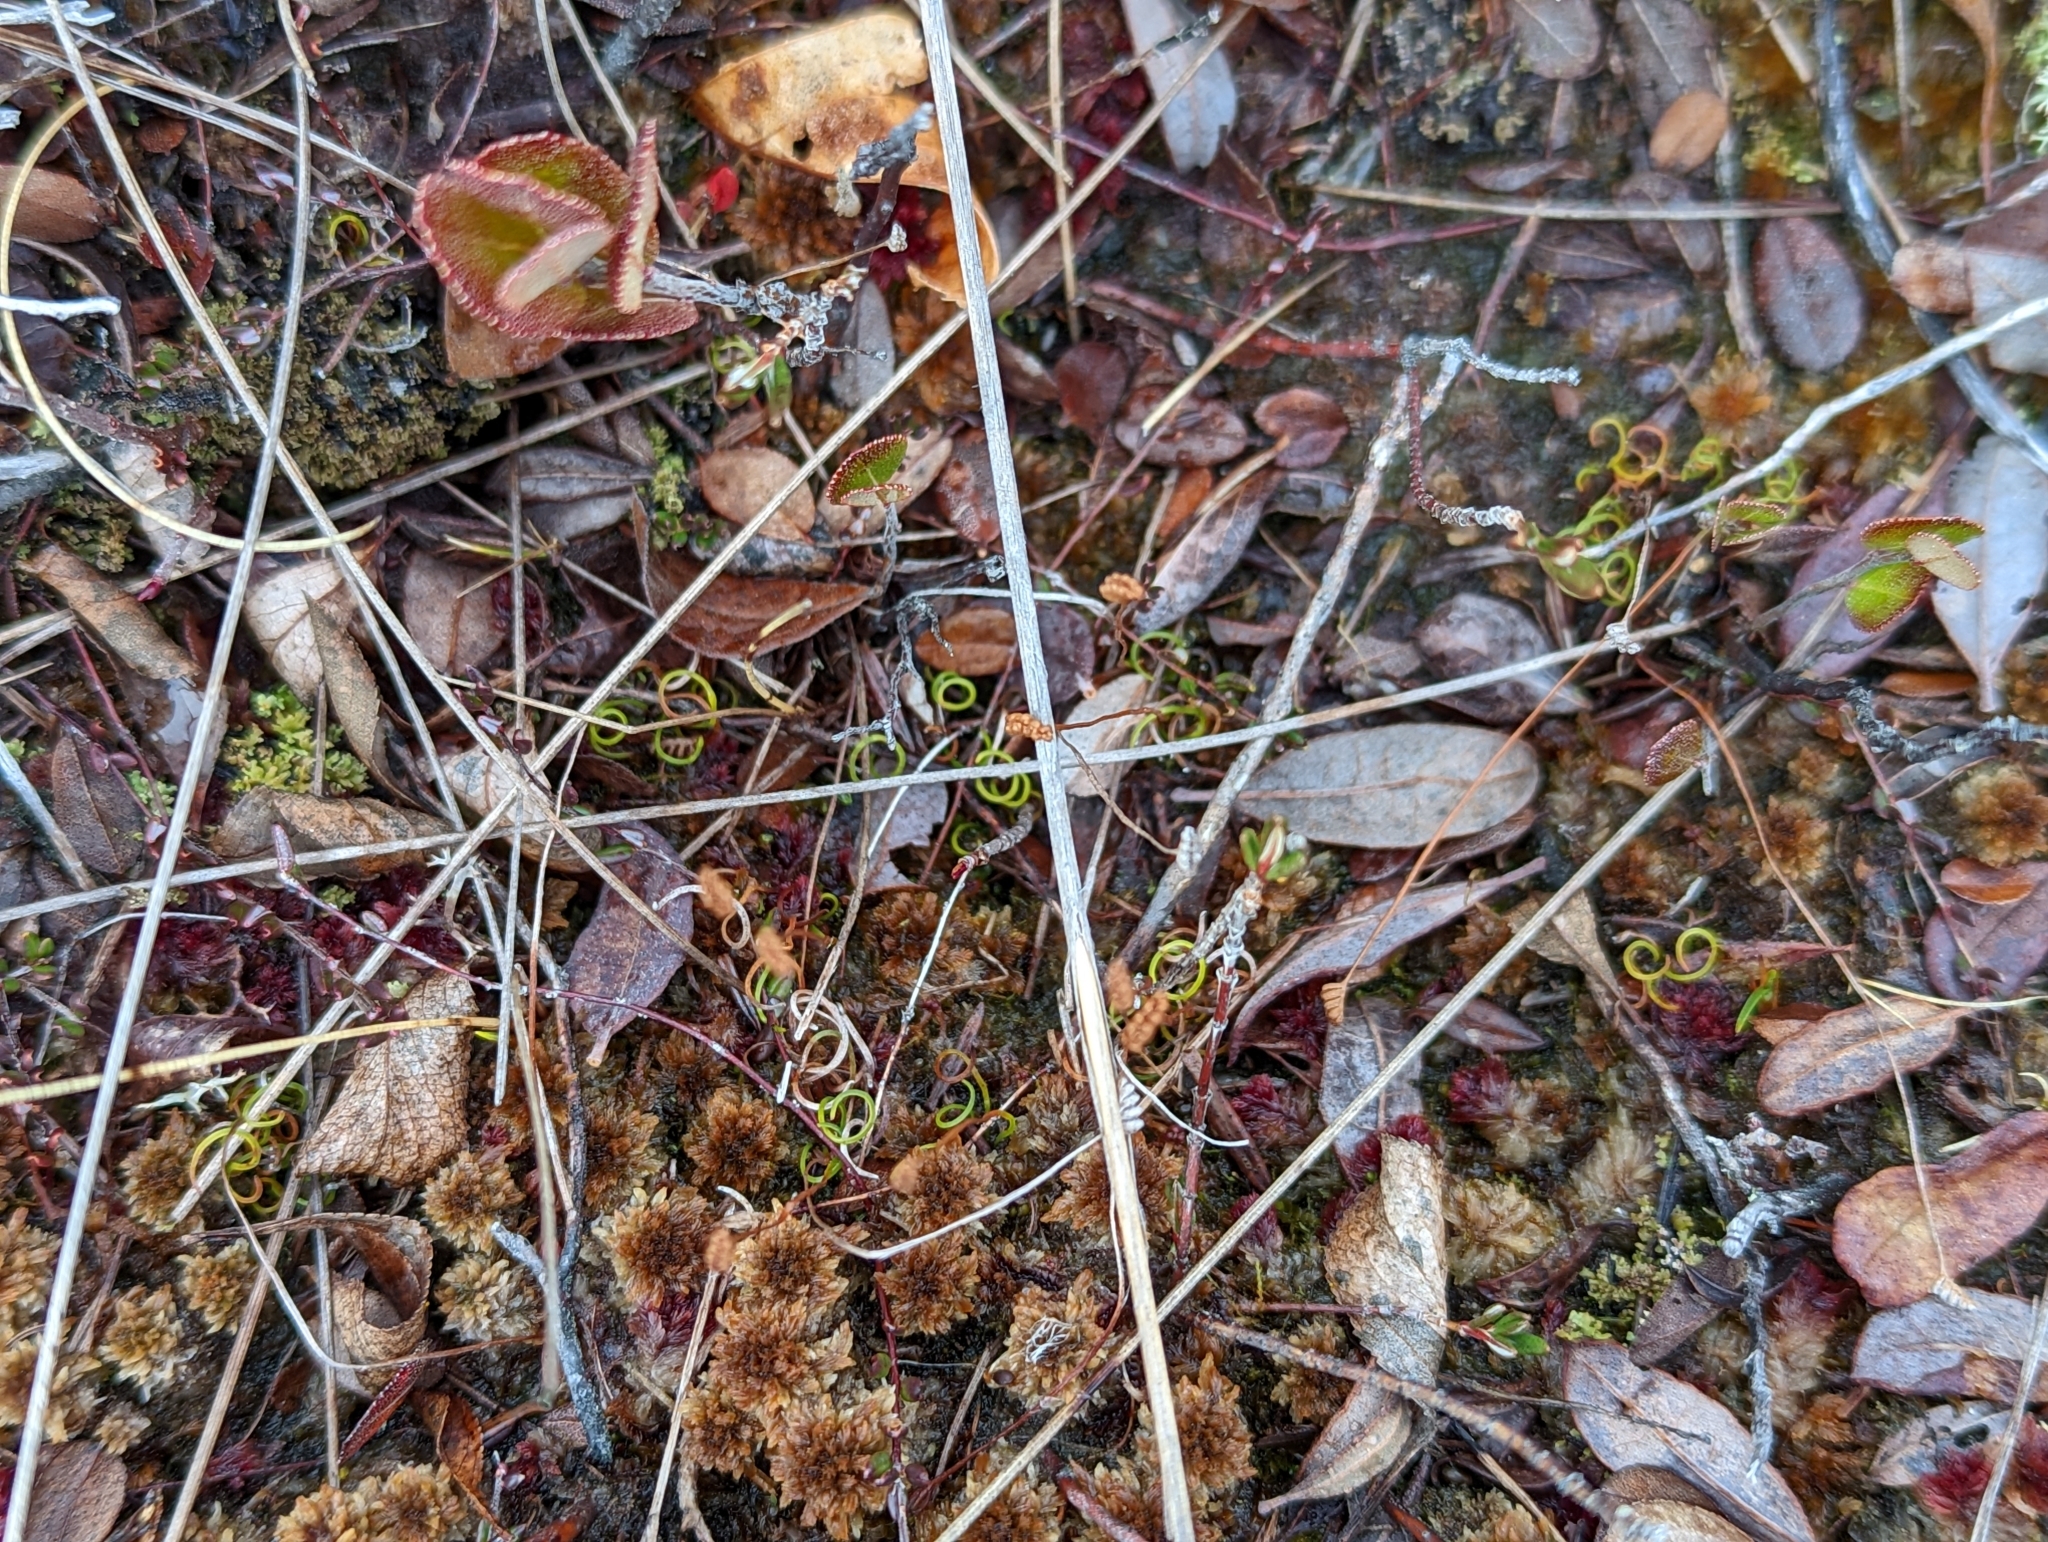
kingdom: Plantae
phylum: Tracheophyta
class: Polypodiopsida
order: Schizaeales
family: Schizaeaceae
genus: Schizaea
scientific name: Schizaea pusilla
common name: Curly-grass fern
